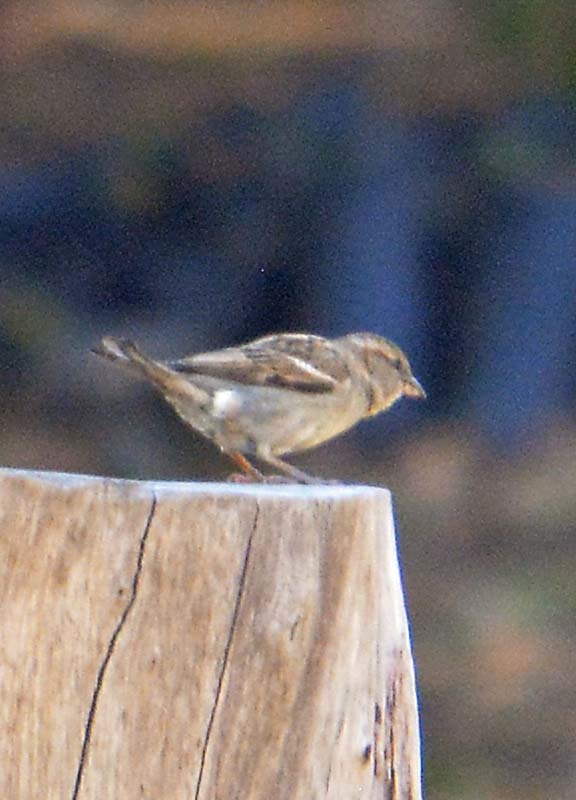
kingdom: Animalia
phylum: Chordata
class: Aves
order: Passeriformes
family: Passeridae
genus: Passer
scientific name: Passer domesticus
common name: House sparrow
